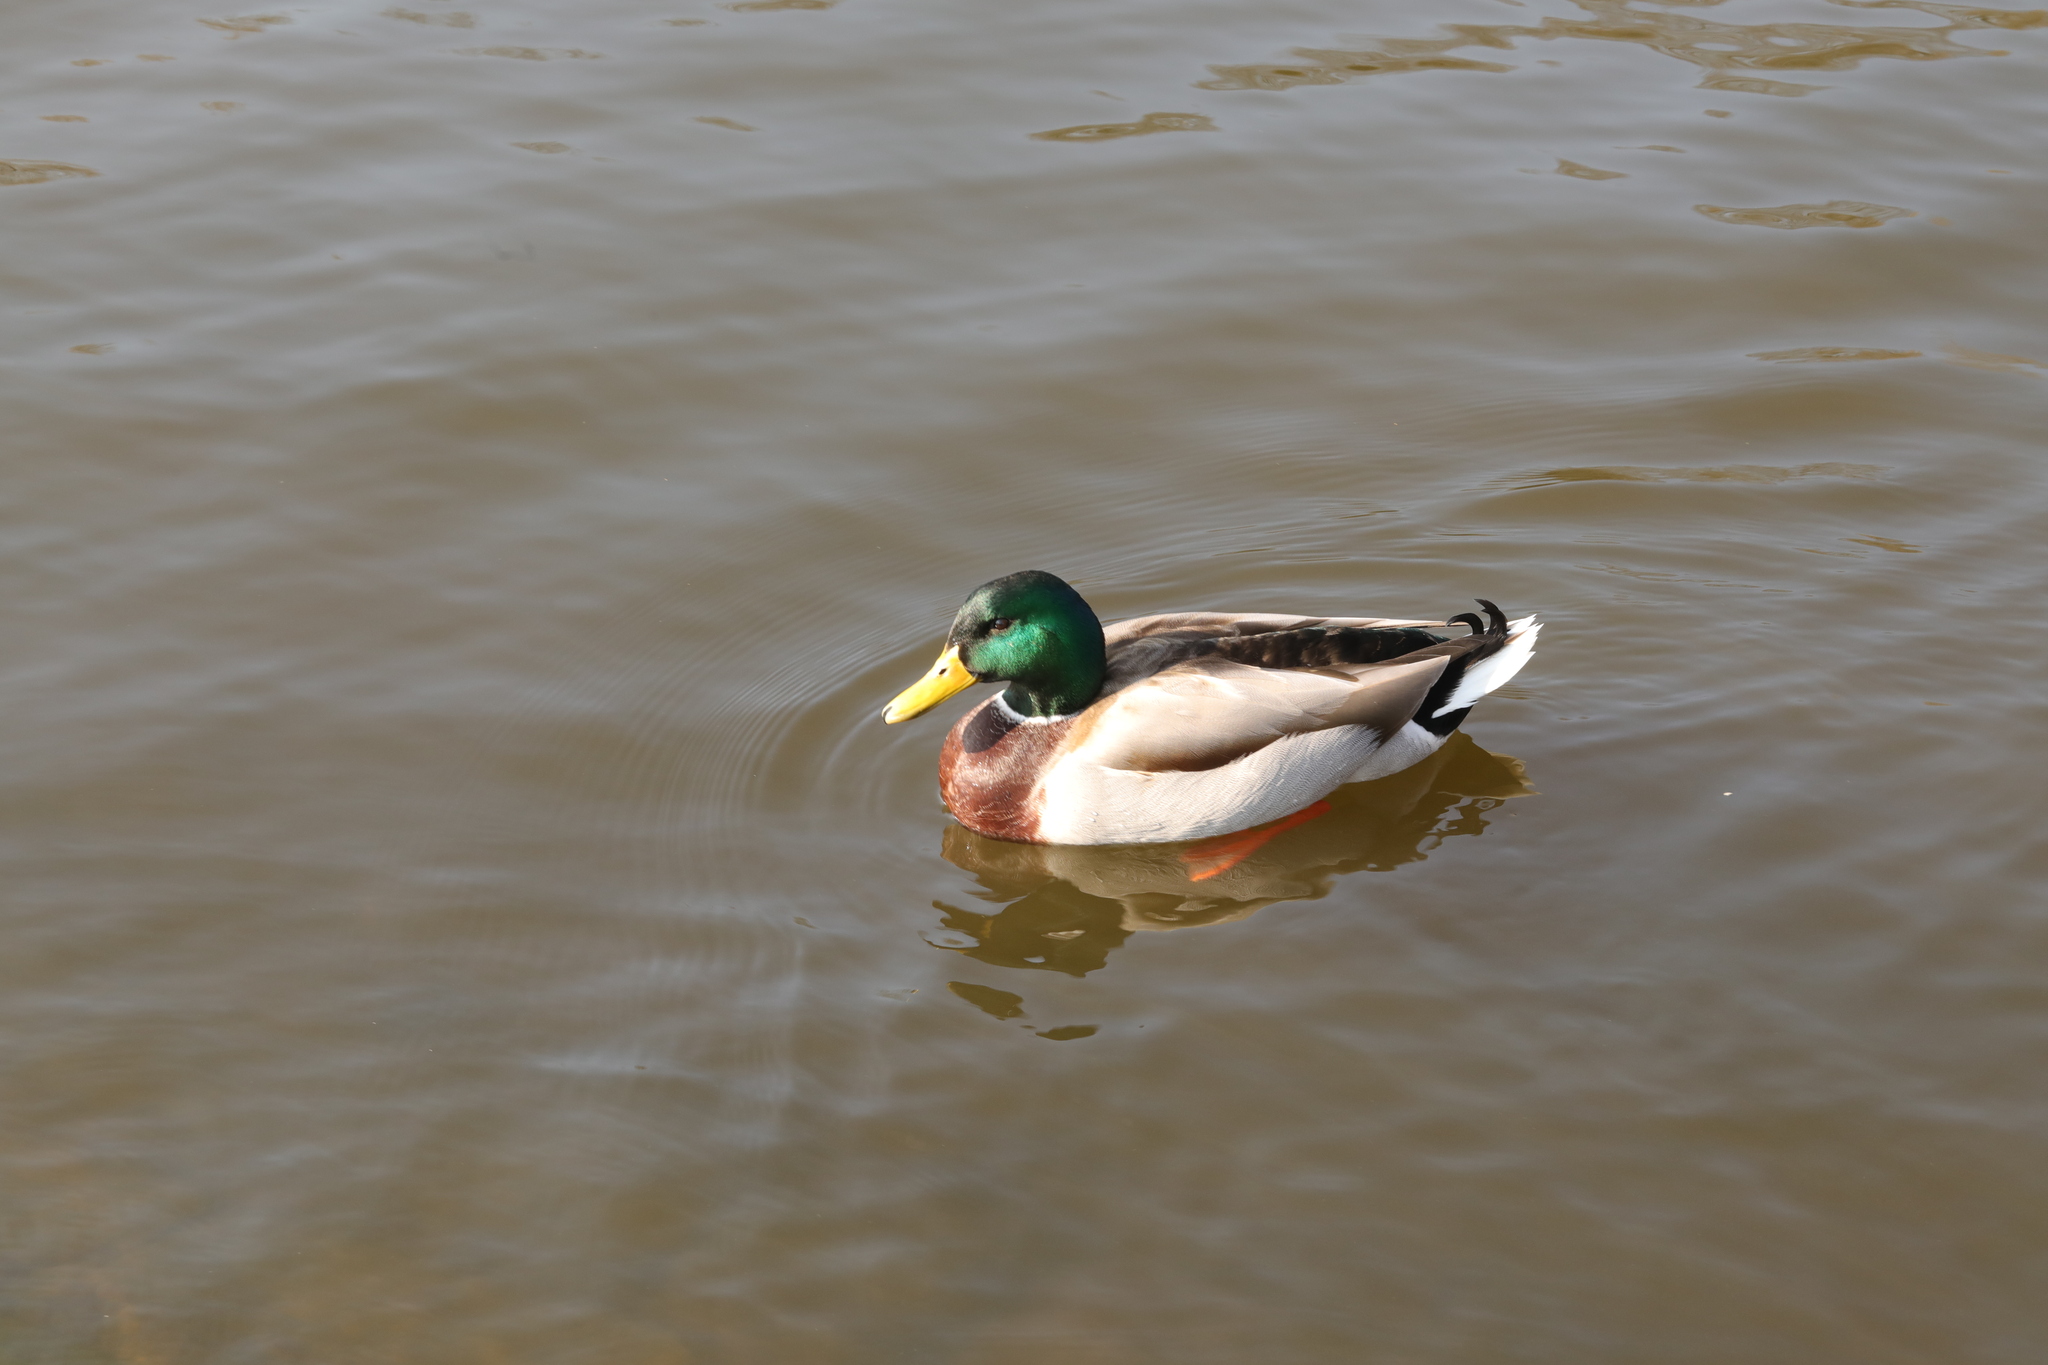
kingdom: Animalia
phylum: Chordata
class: Aves
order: Anseriformes
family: Anatidae
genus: Anas
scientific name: Anas platyrhynchos
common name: Mallard
